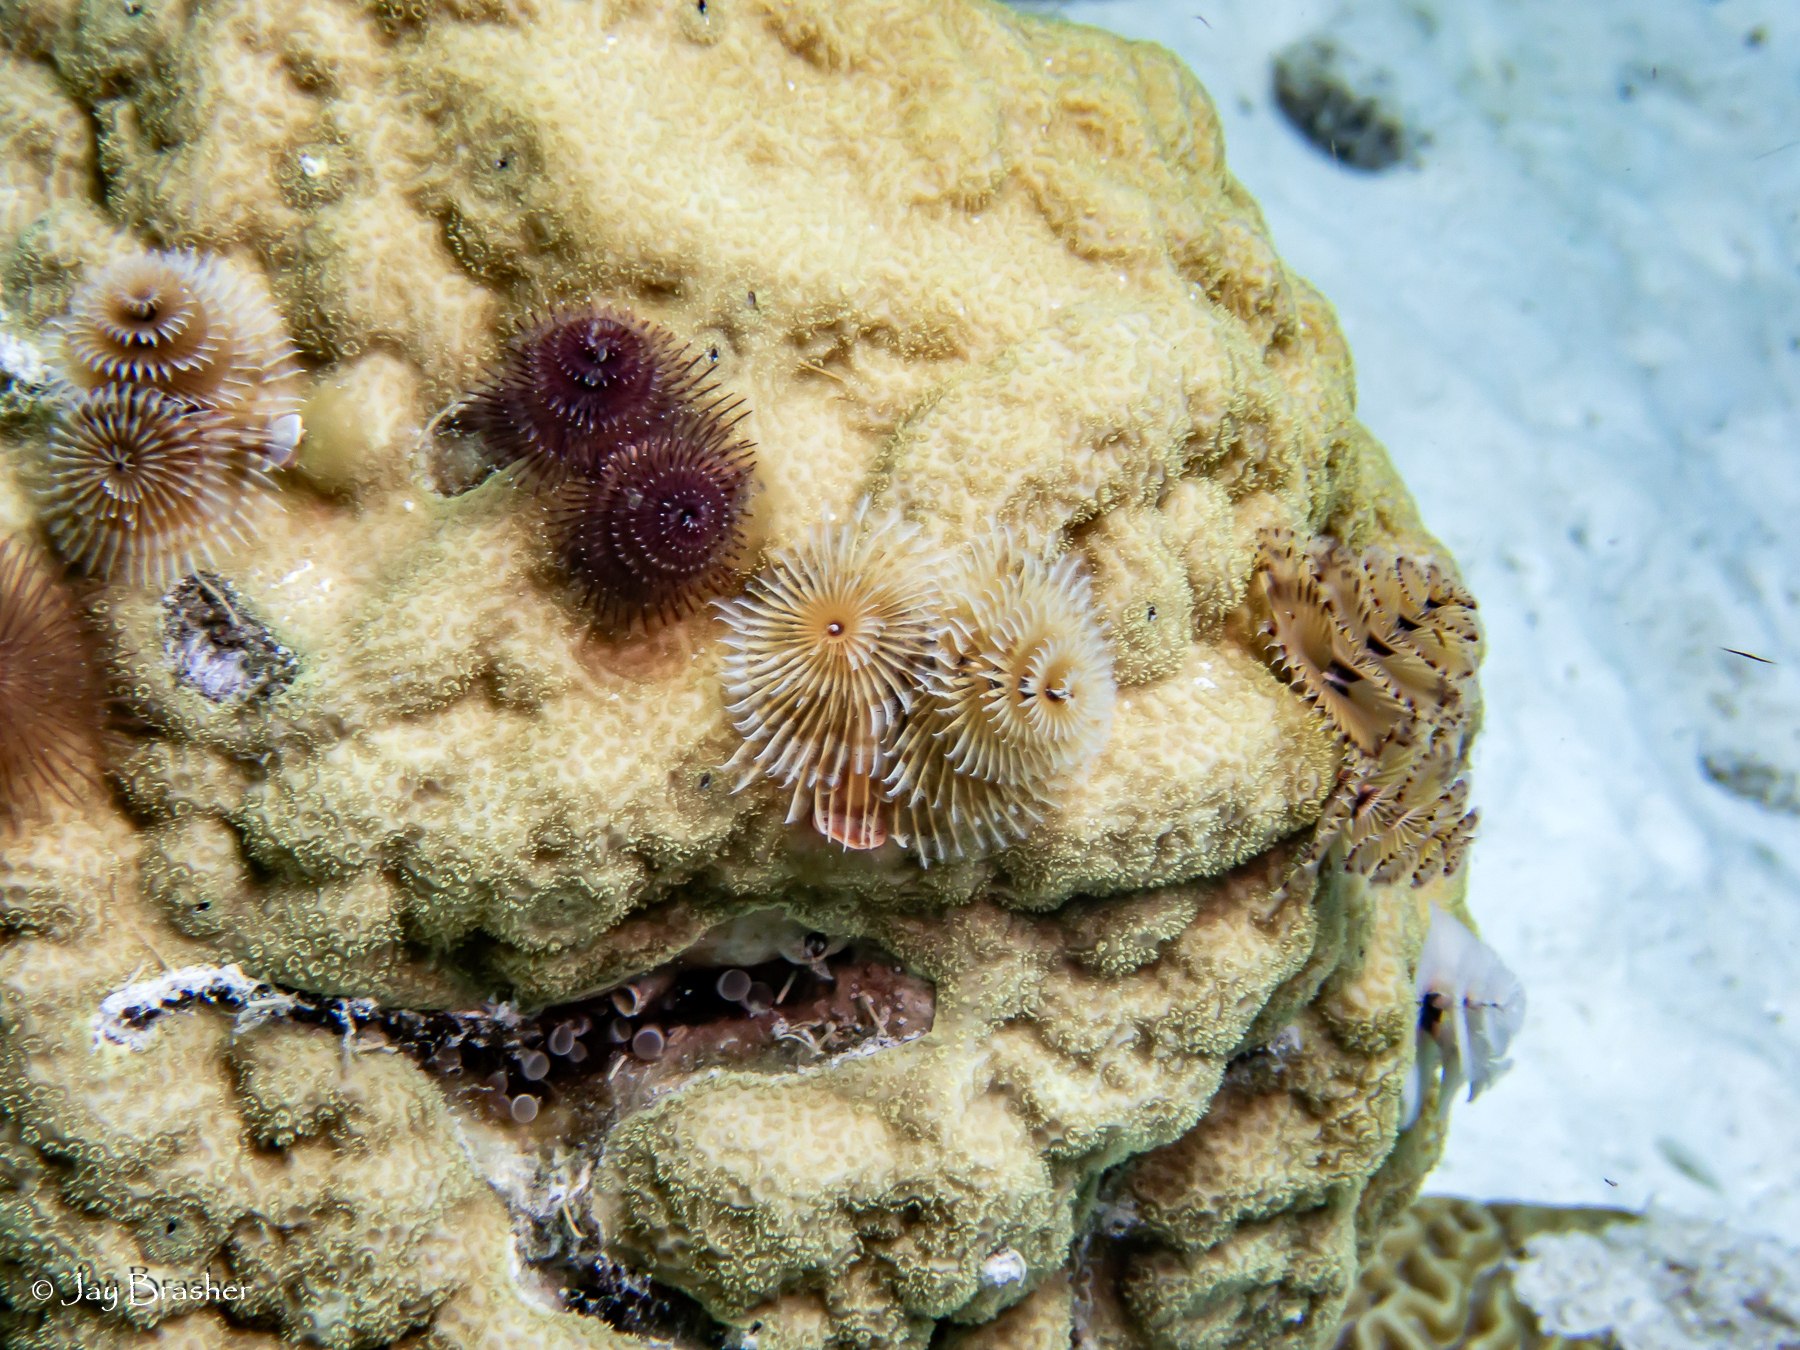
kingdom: Animalia
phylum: Cnidaria
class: Anthozoa
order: Scleractinia
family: Poritidae
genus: Porites
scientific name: Porites astreoides
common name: Mustard hill coral
